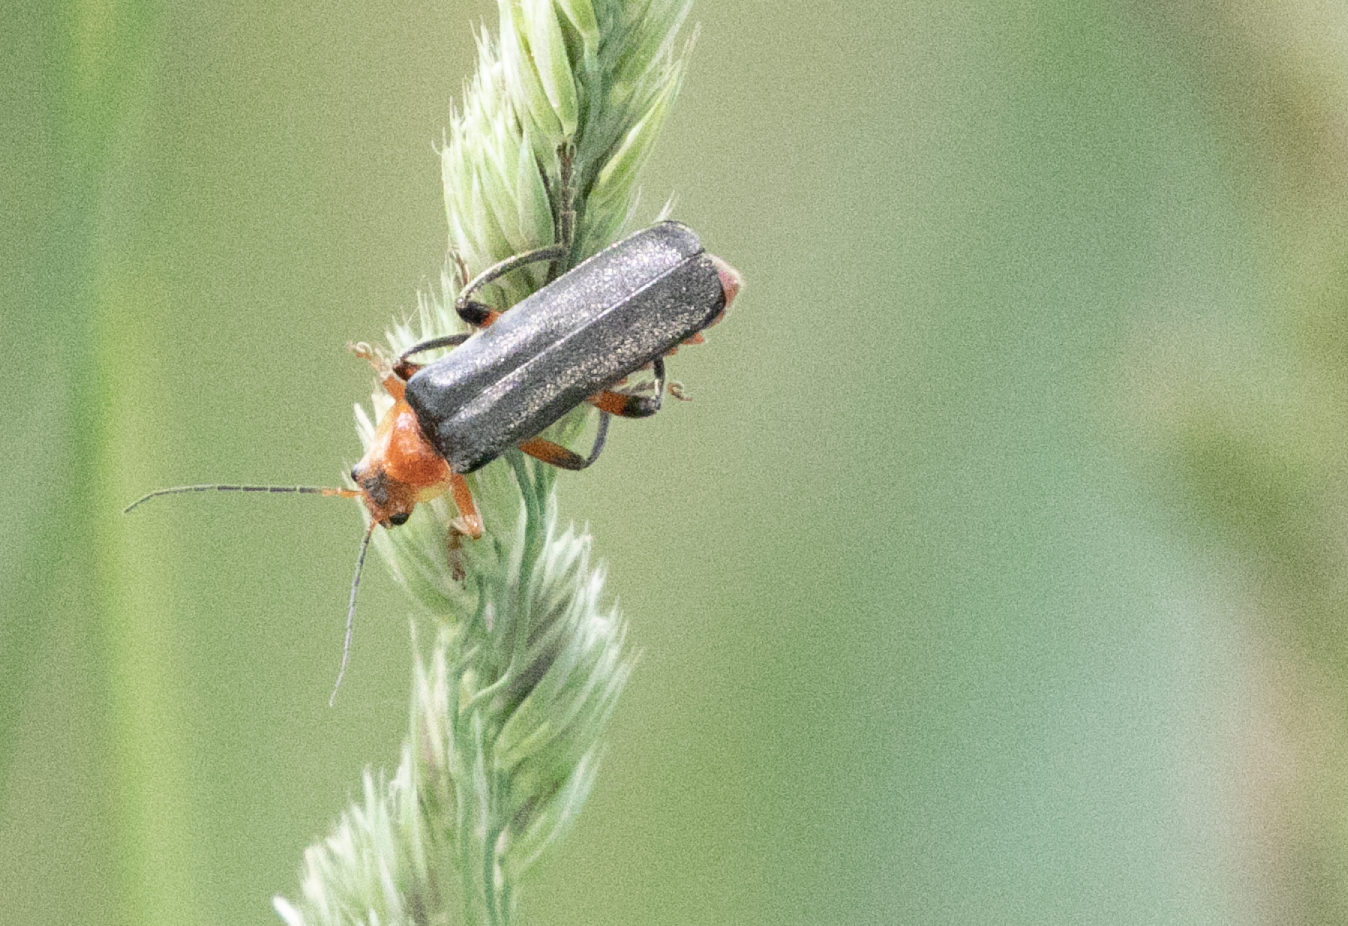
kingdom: Animalia
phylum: Arthropoda
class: Insecta
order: Coleoptera
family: Cantharidae
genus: Cantharis
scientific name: Cantharis livida
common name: Livid soldier beetle
